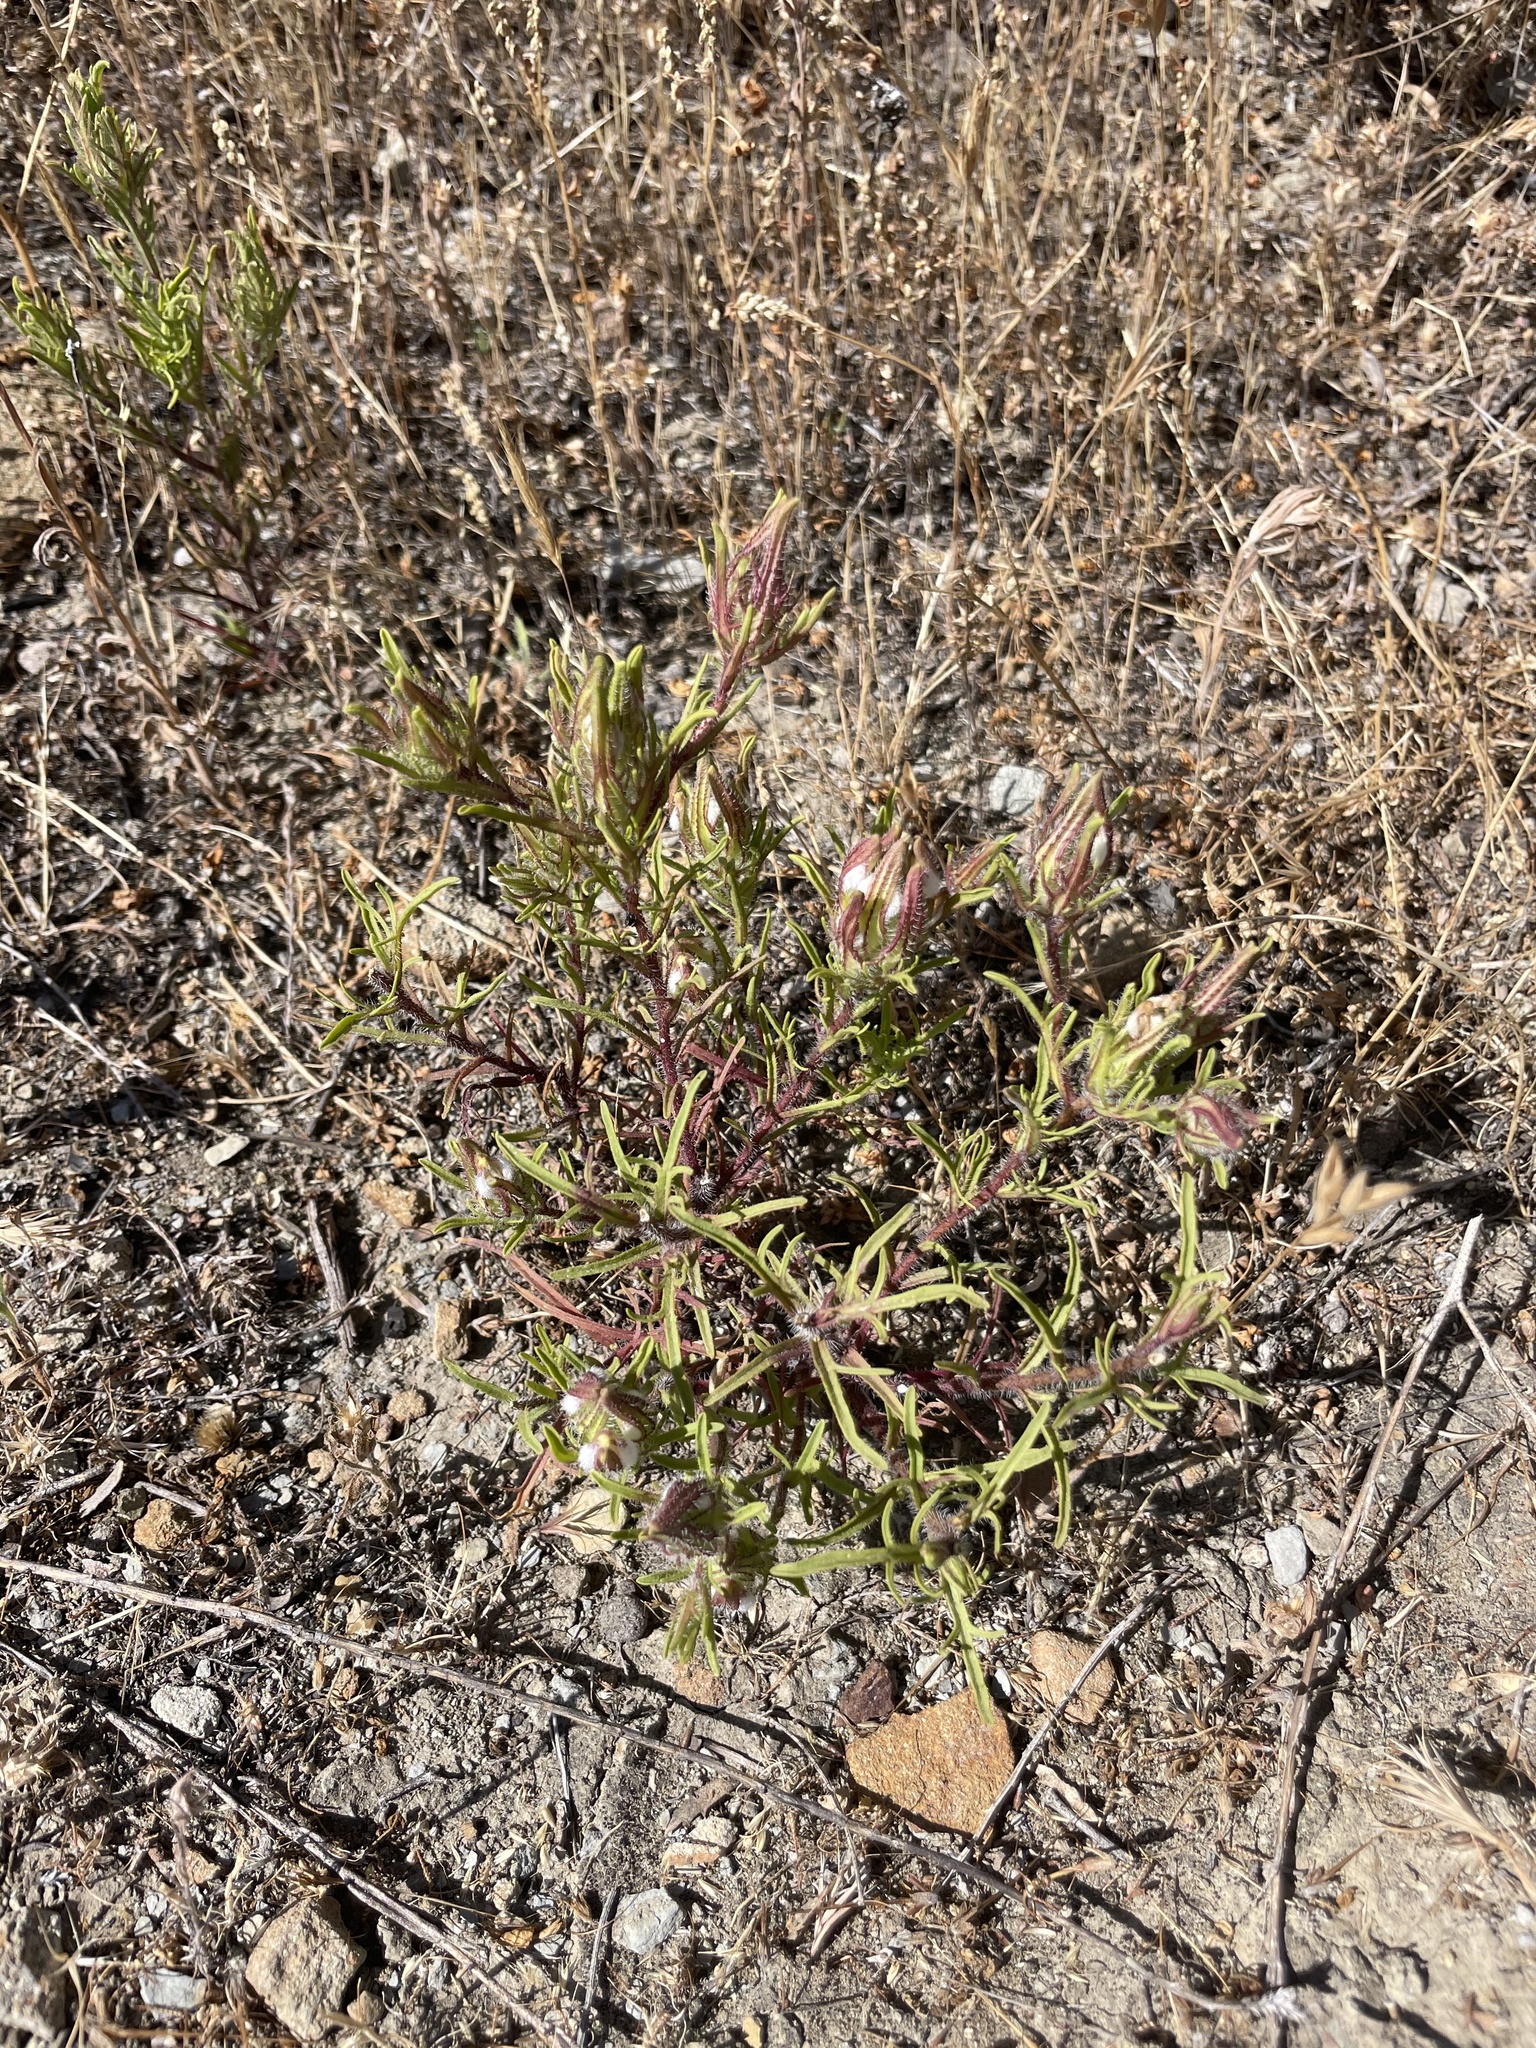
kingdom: Plantae
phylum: Tracheophyta
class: Magnoliopsida
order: Lamiales
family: Orobanchaceae
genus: Dicranostegia
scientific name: Dicranostegia orcuttiana
